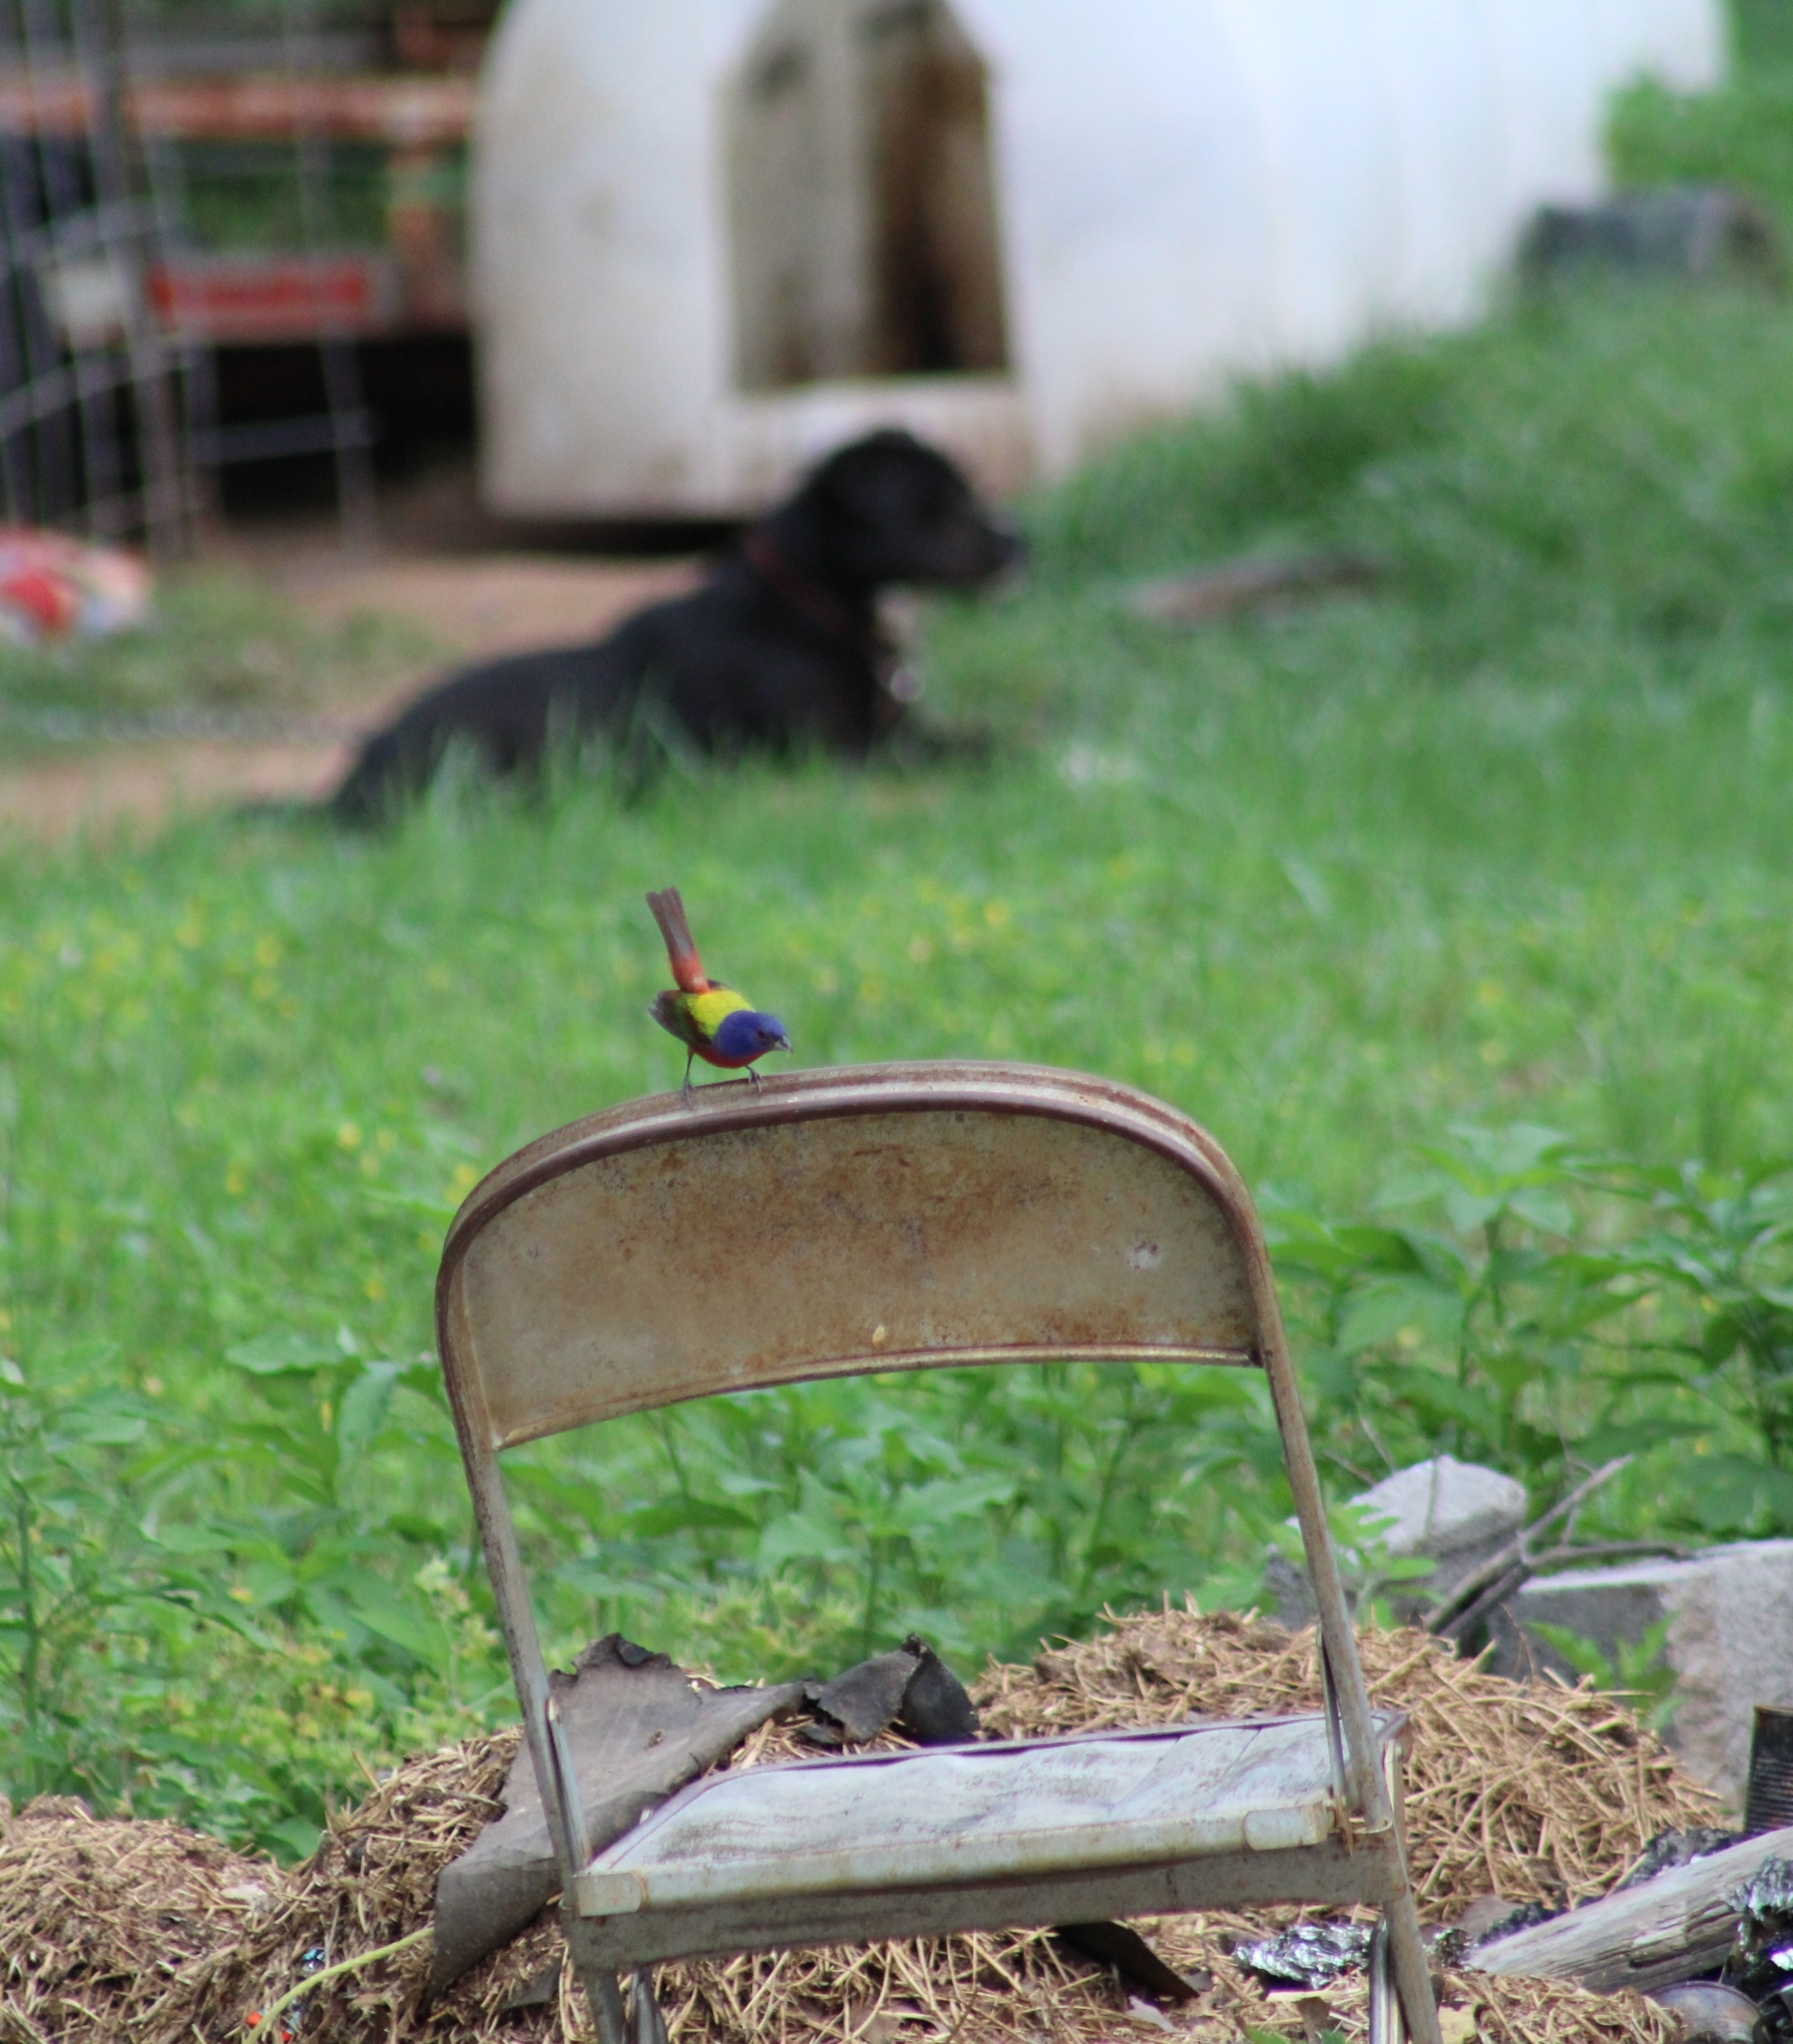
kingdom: Animalia
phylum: Chordata
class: Aves
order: Passeriformes
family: Cardinalidae
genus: Passerina
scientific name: Passerina ciris
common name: Painted bunting
